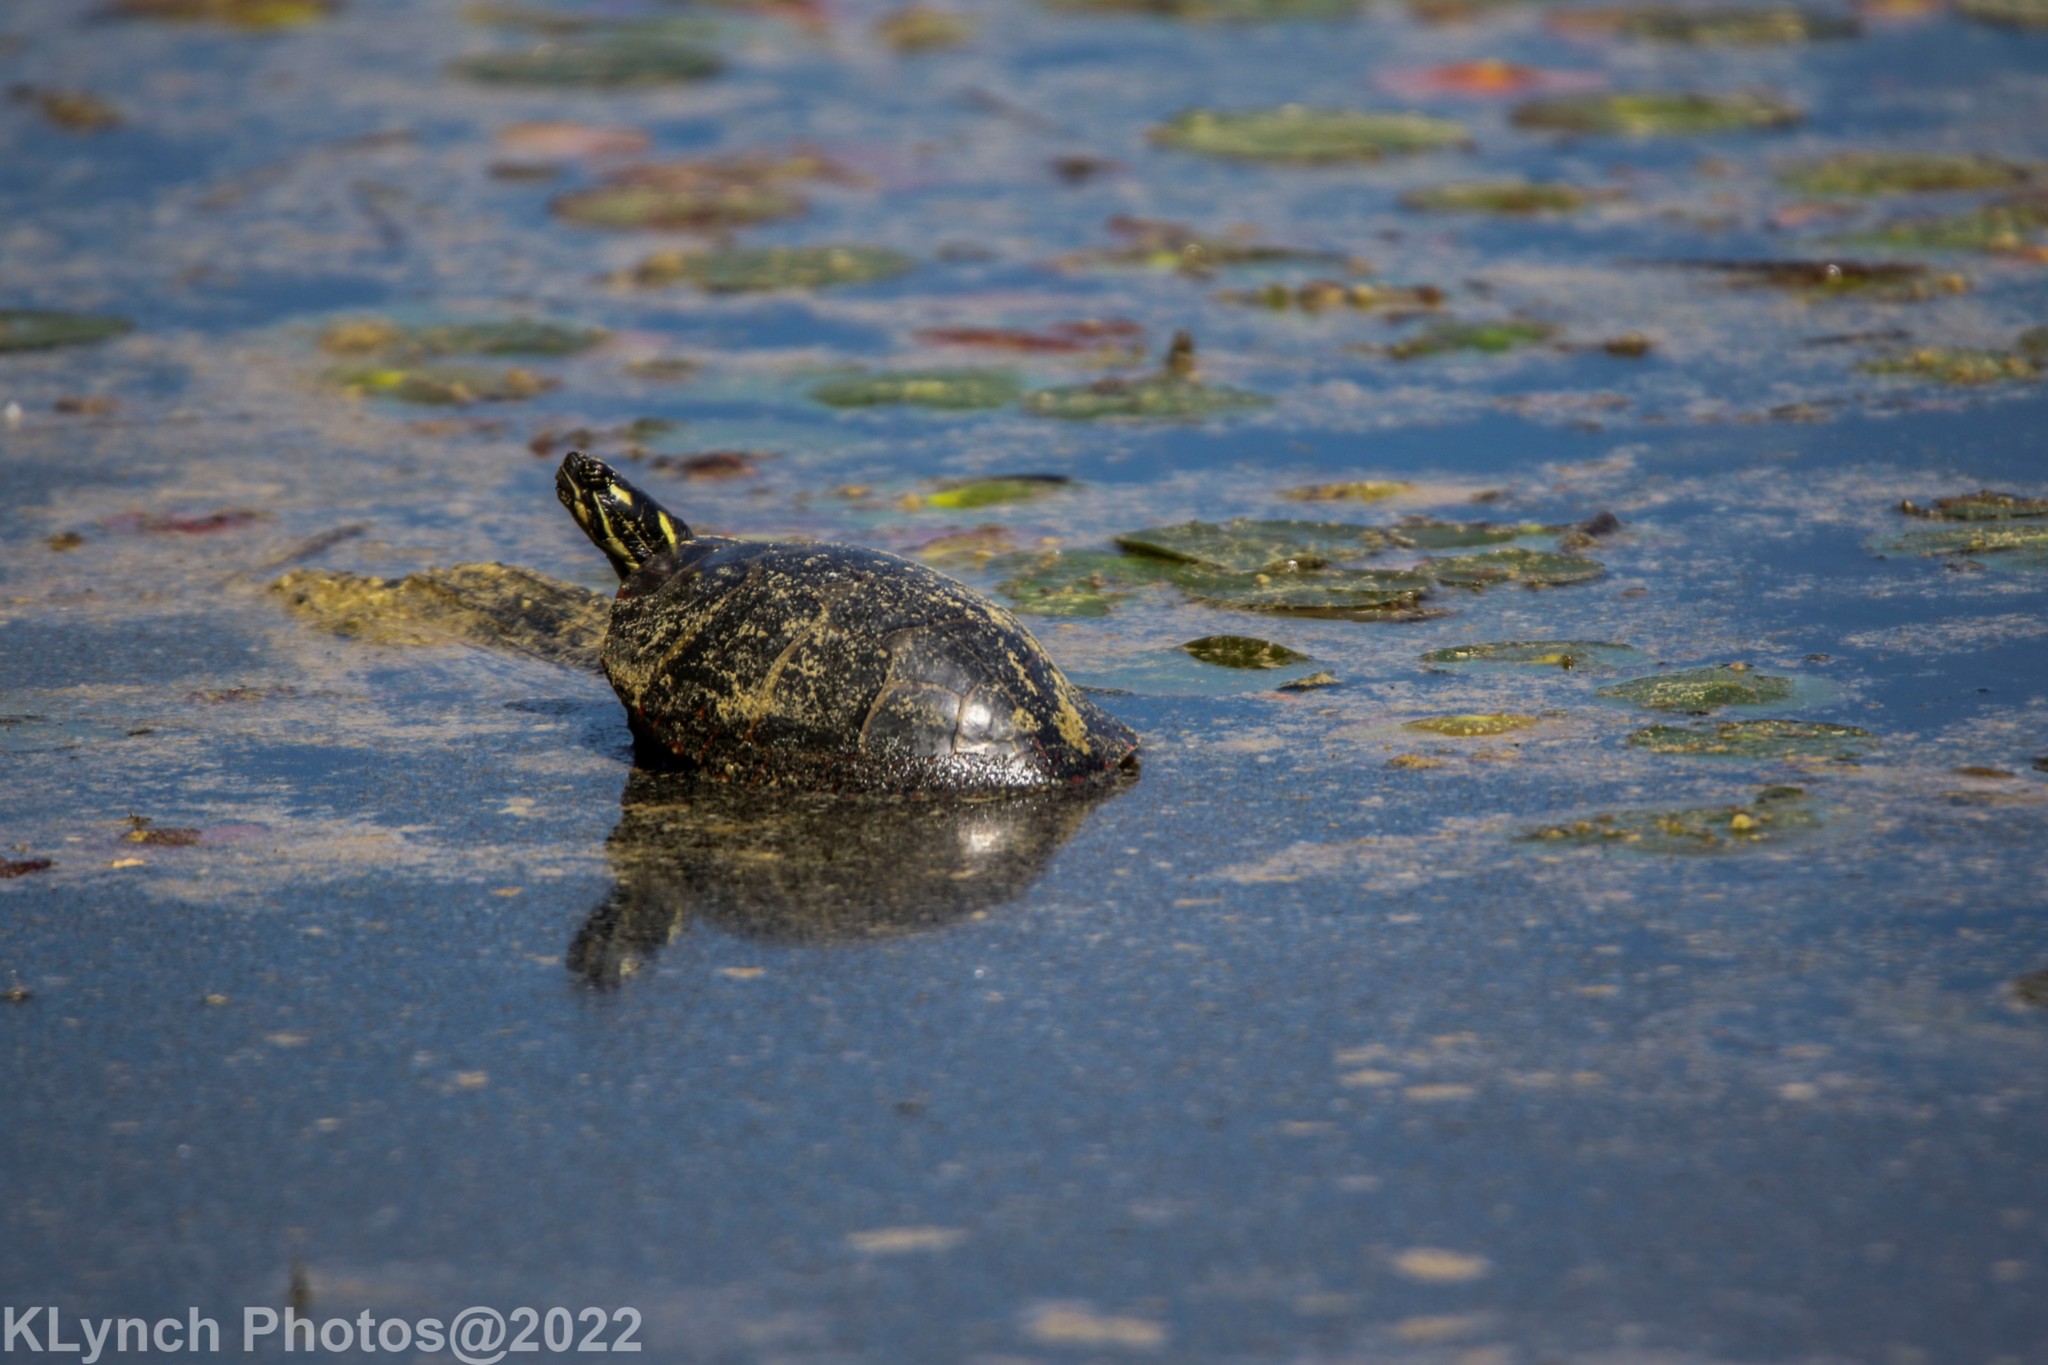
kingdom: Animalia
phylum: Chordata
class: Testudines
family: Emydidae
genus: Chrysemys
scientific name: Chrysemys picta
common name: Painted turtle
